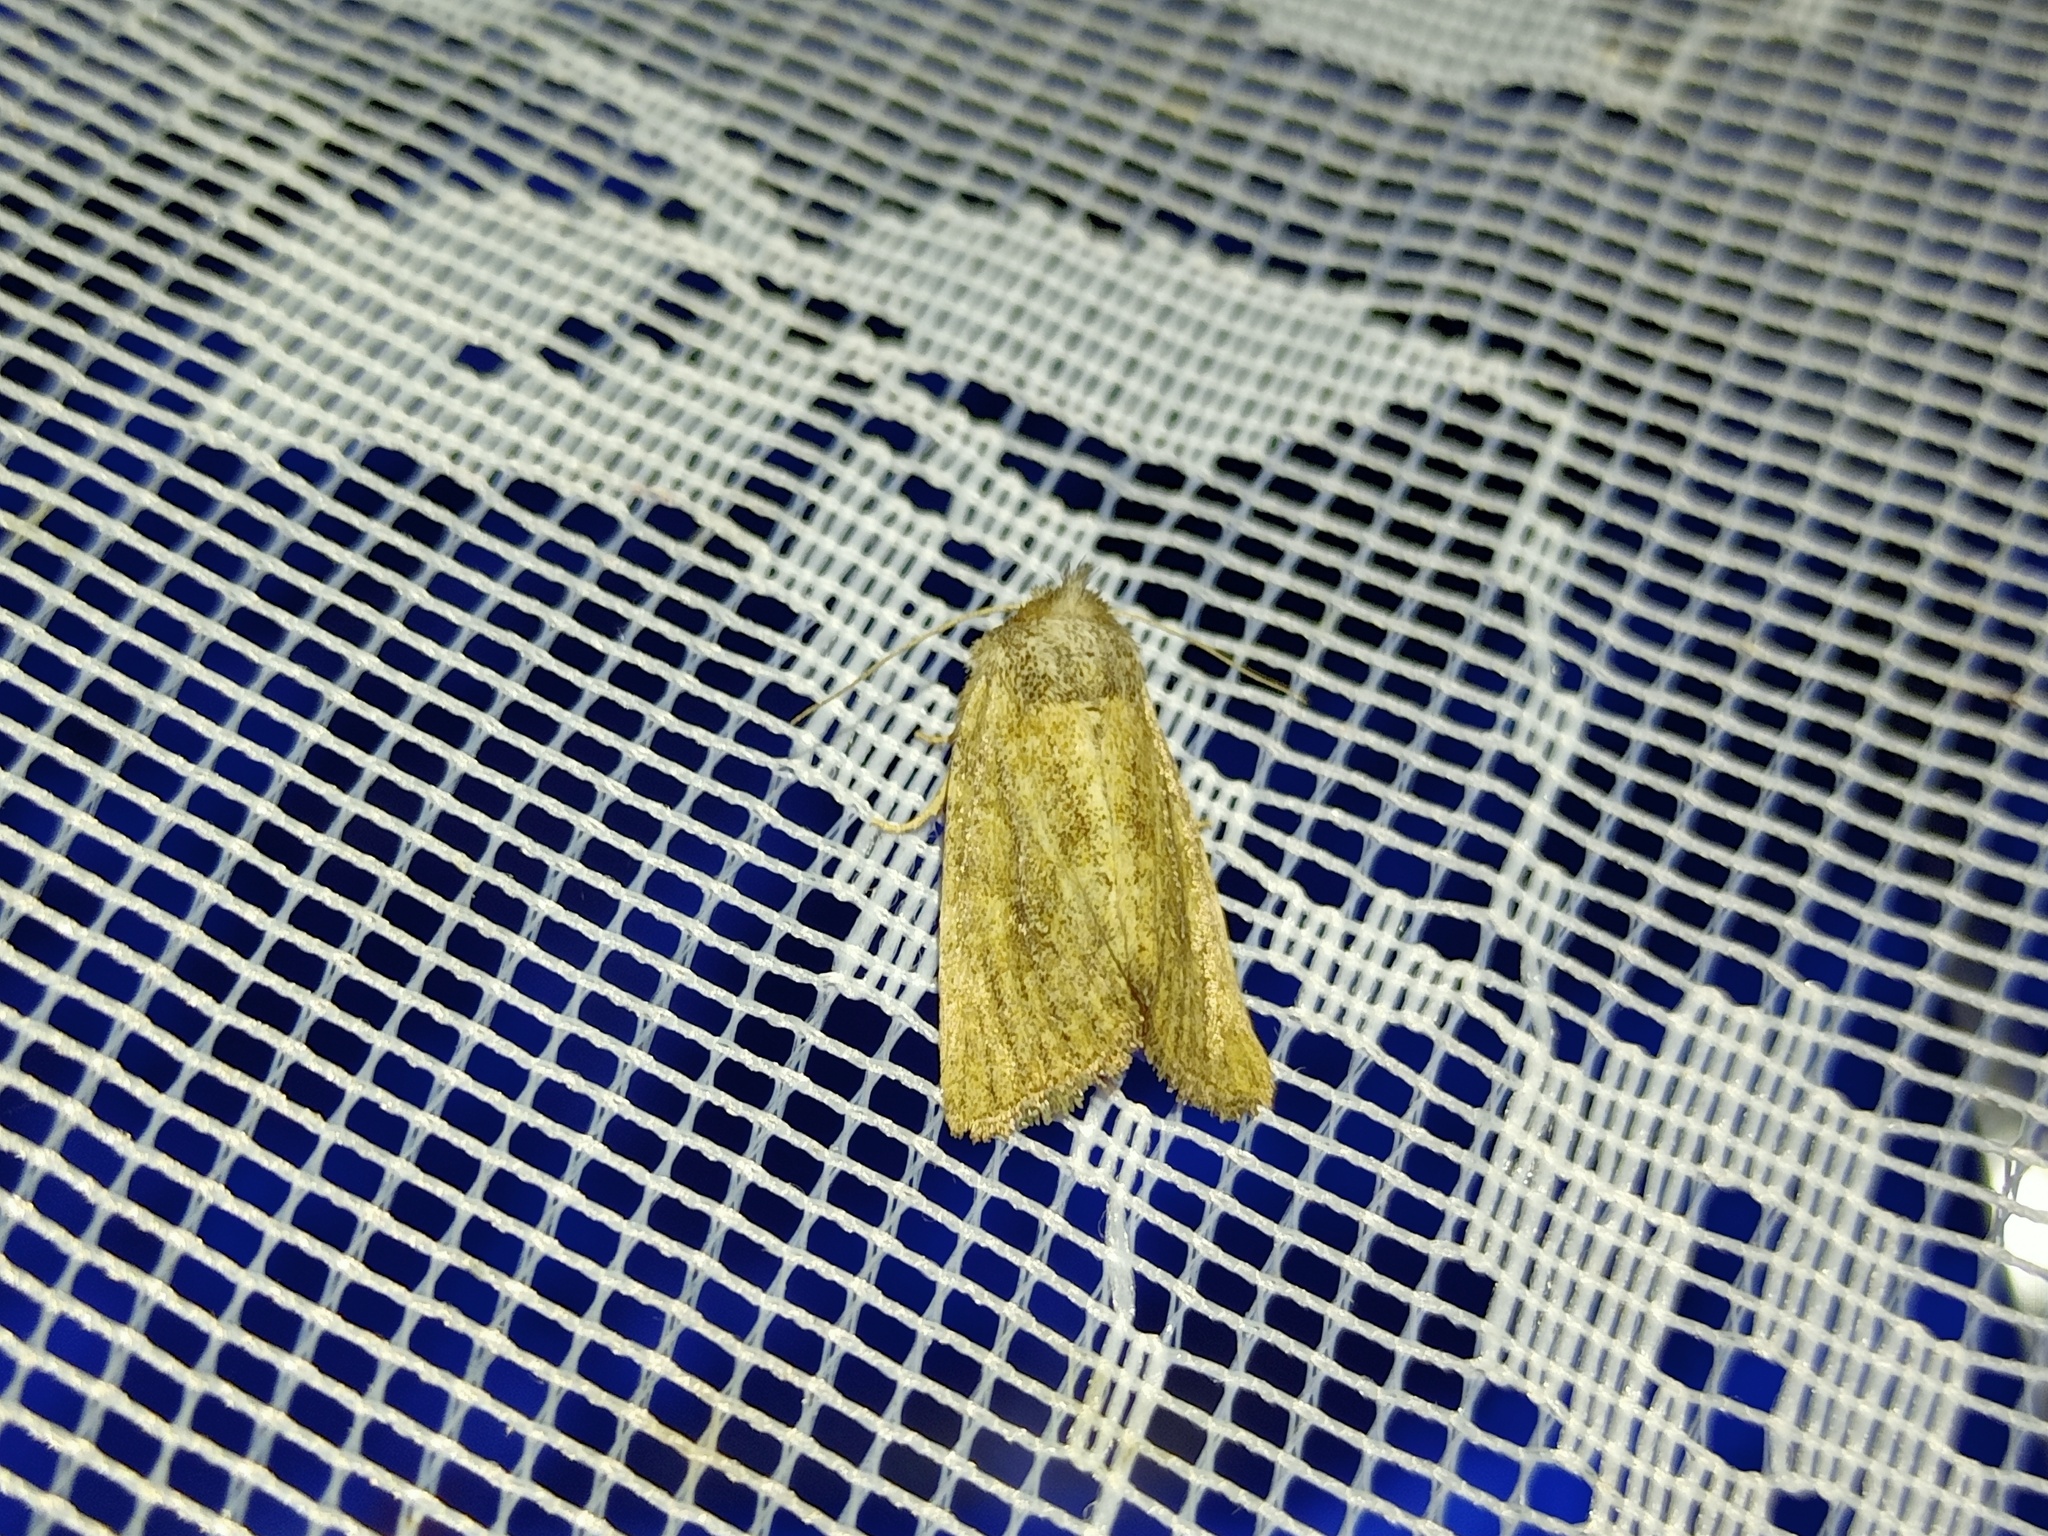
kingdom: Animalia
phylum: Arthropoda
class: Insecta
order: Lepidoptera
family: Noctuidae
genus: Photedes
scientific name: Photedes fluxa
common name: Mere wainscot
